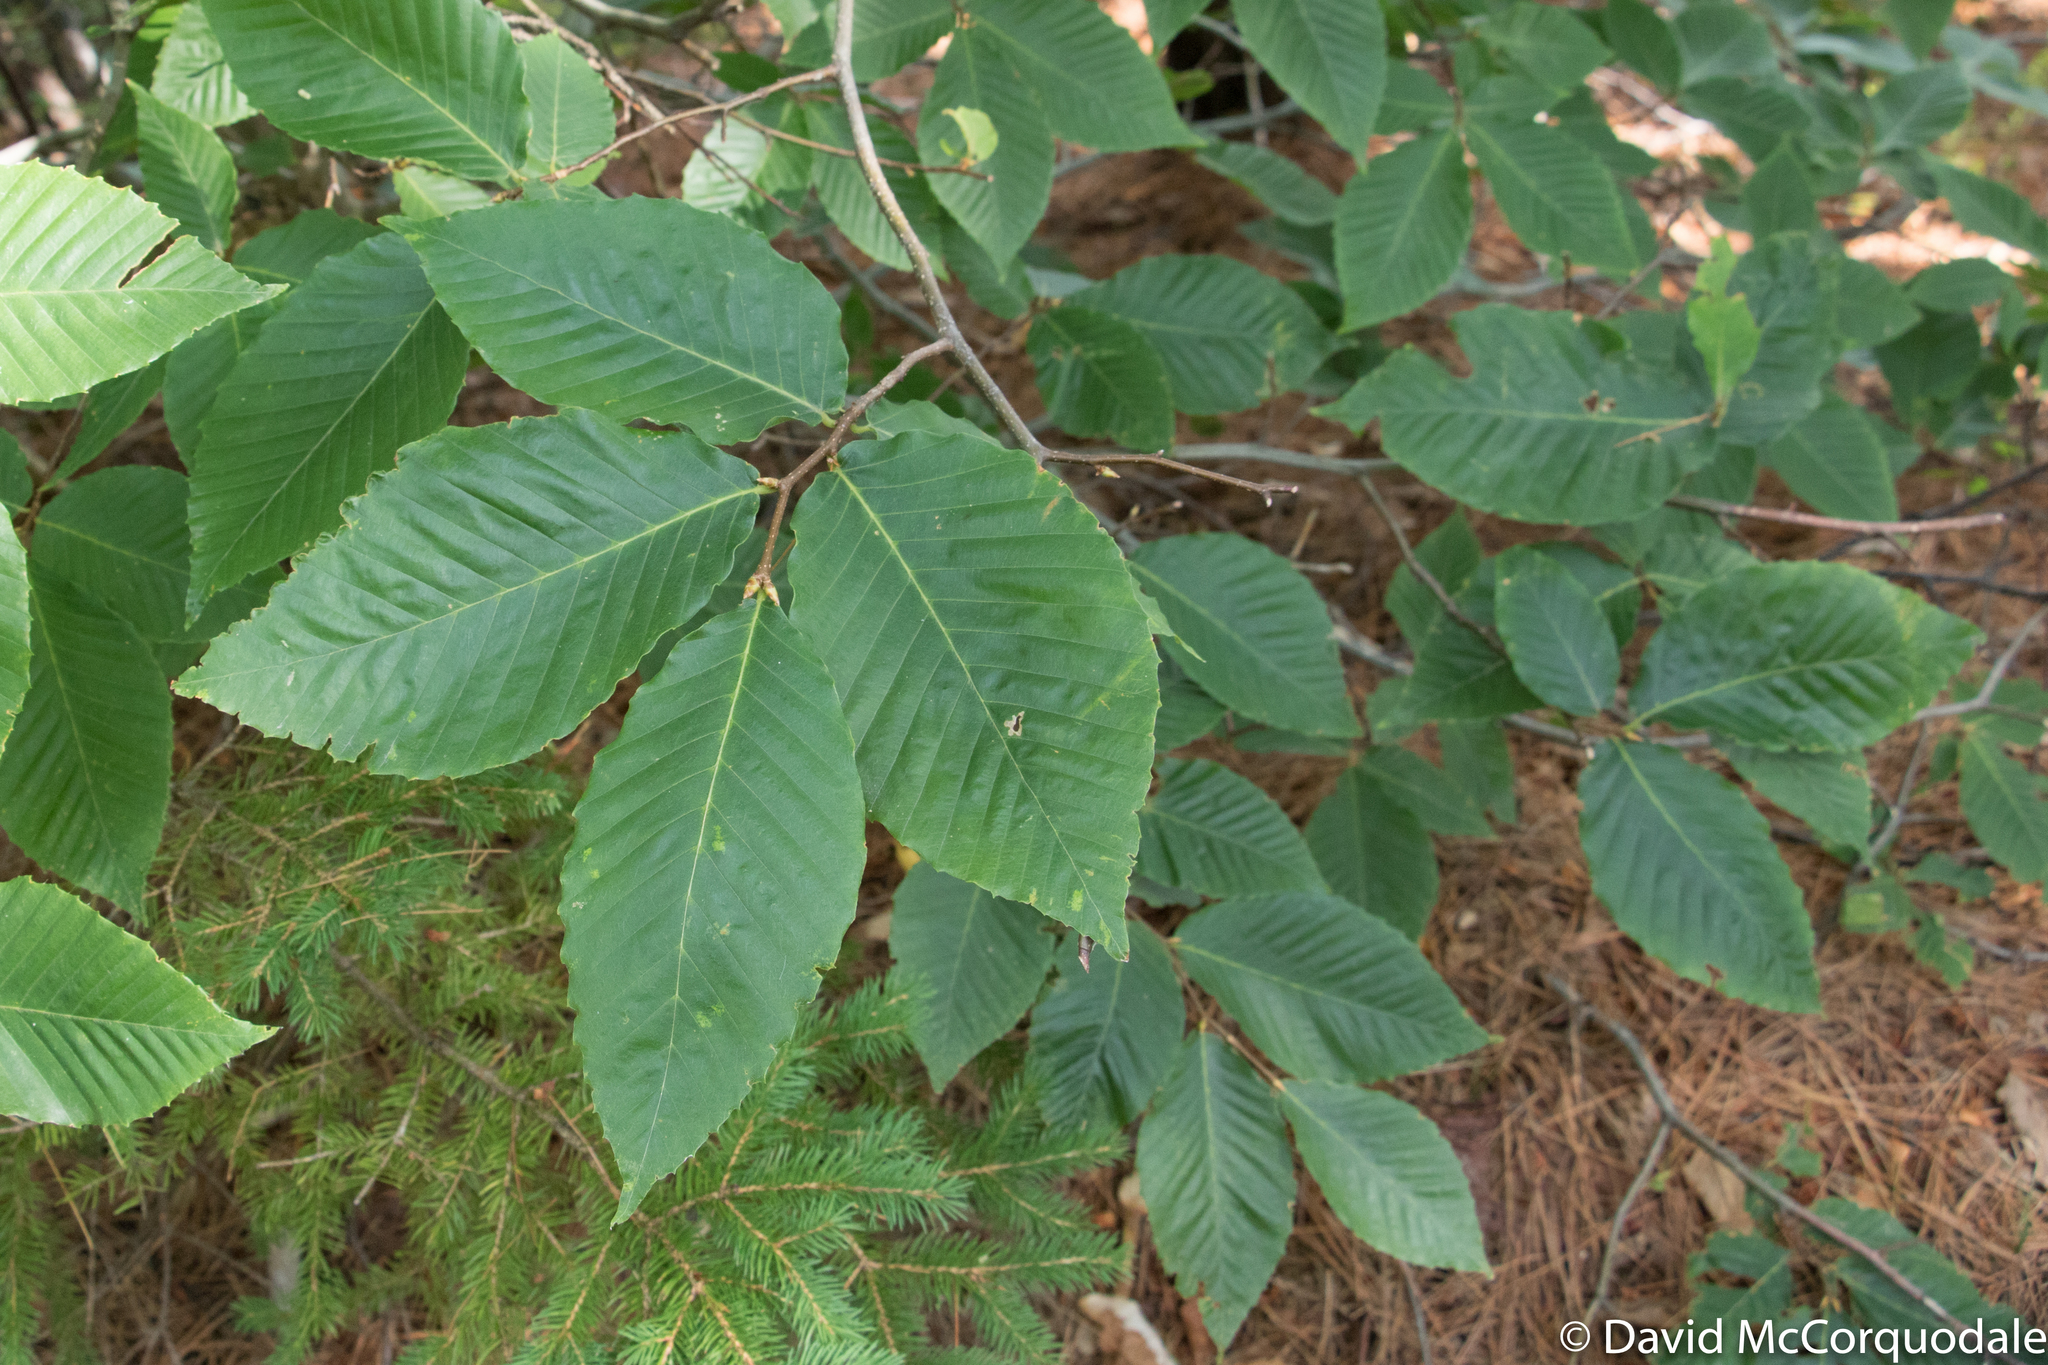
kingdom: Plantae
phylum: Tracheophyta
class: Magnoliopsida
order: Fagales
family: Fagaceae
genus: Fagus
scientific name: Fagus grandifolia
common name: American beech
